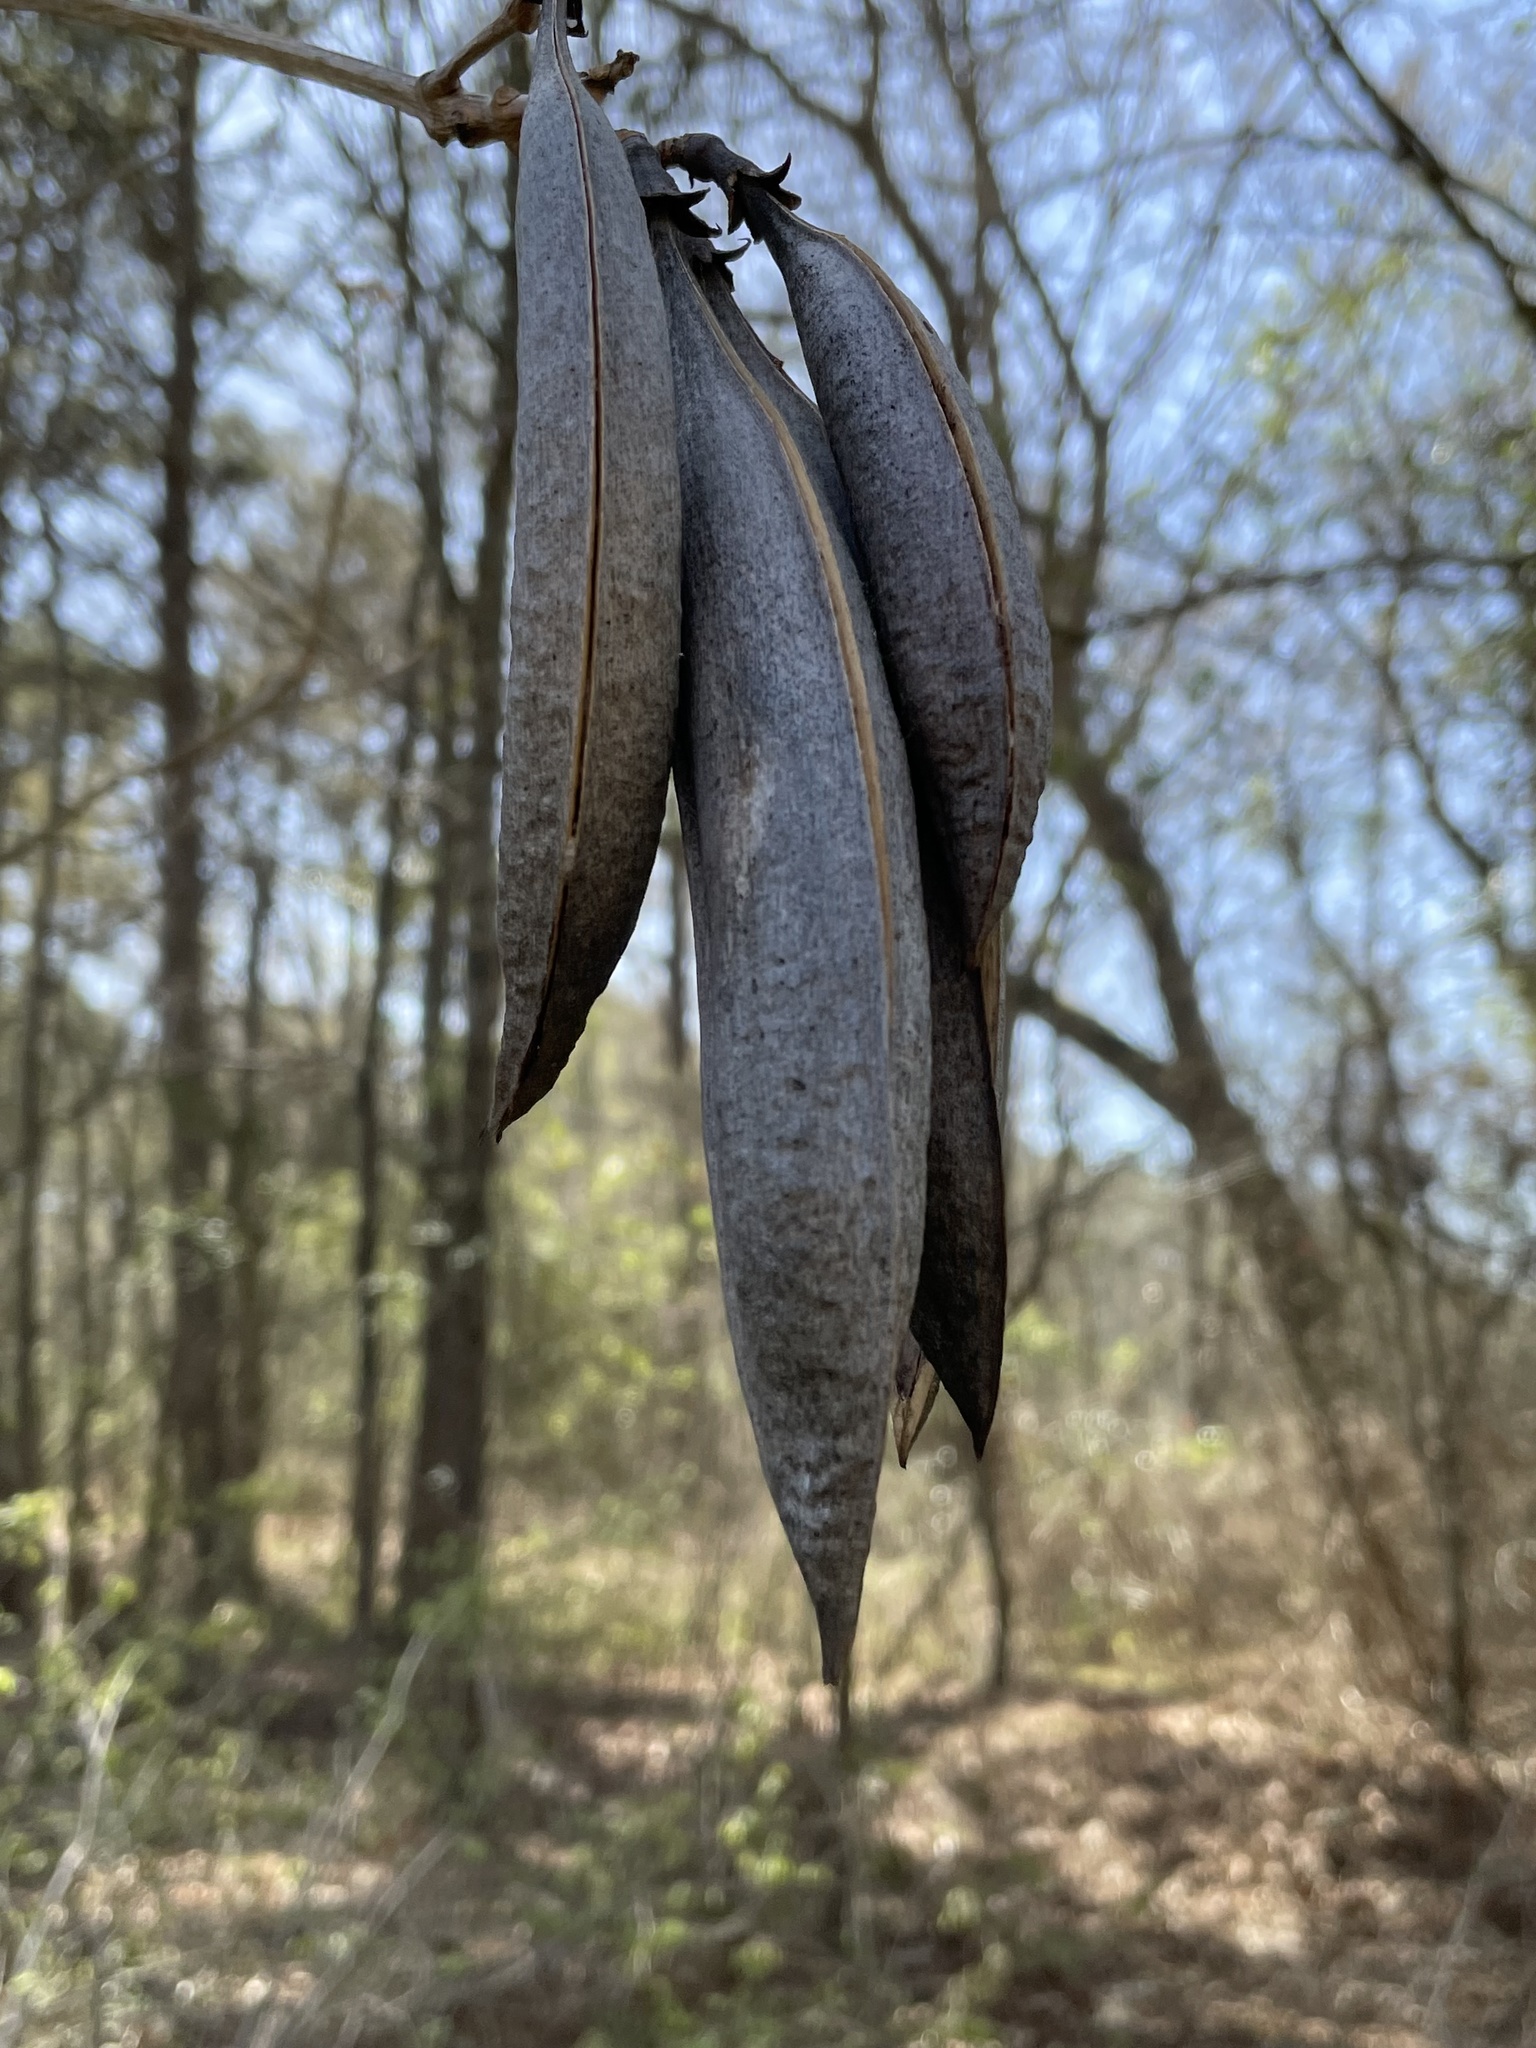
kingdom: Plantae
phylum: Tracheophyta
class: Magnoliopsida
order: Lamiales
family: Bignoniaceae
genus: Campsis
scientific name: Campsis radicans
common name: Trumpet-creeper
